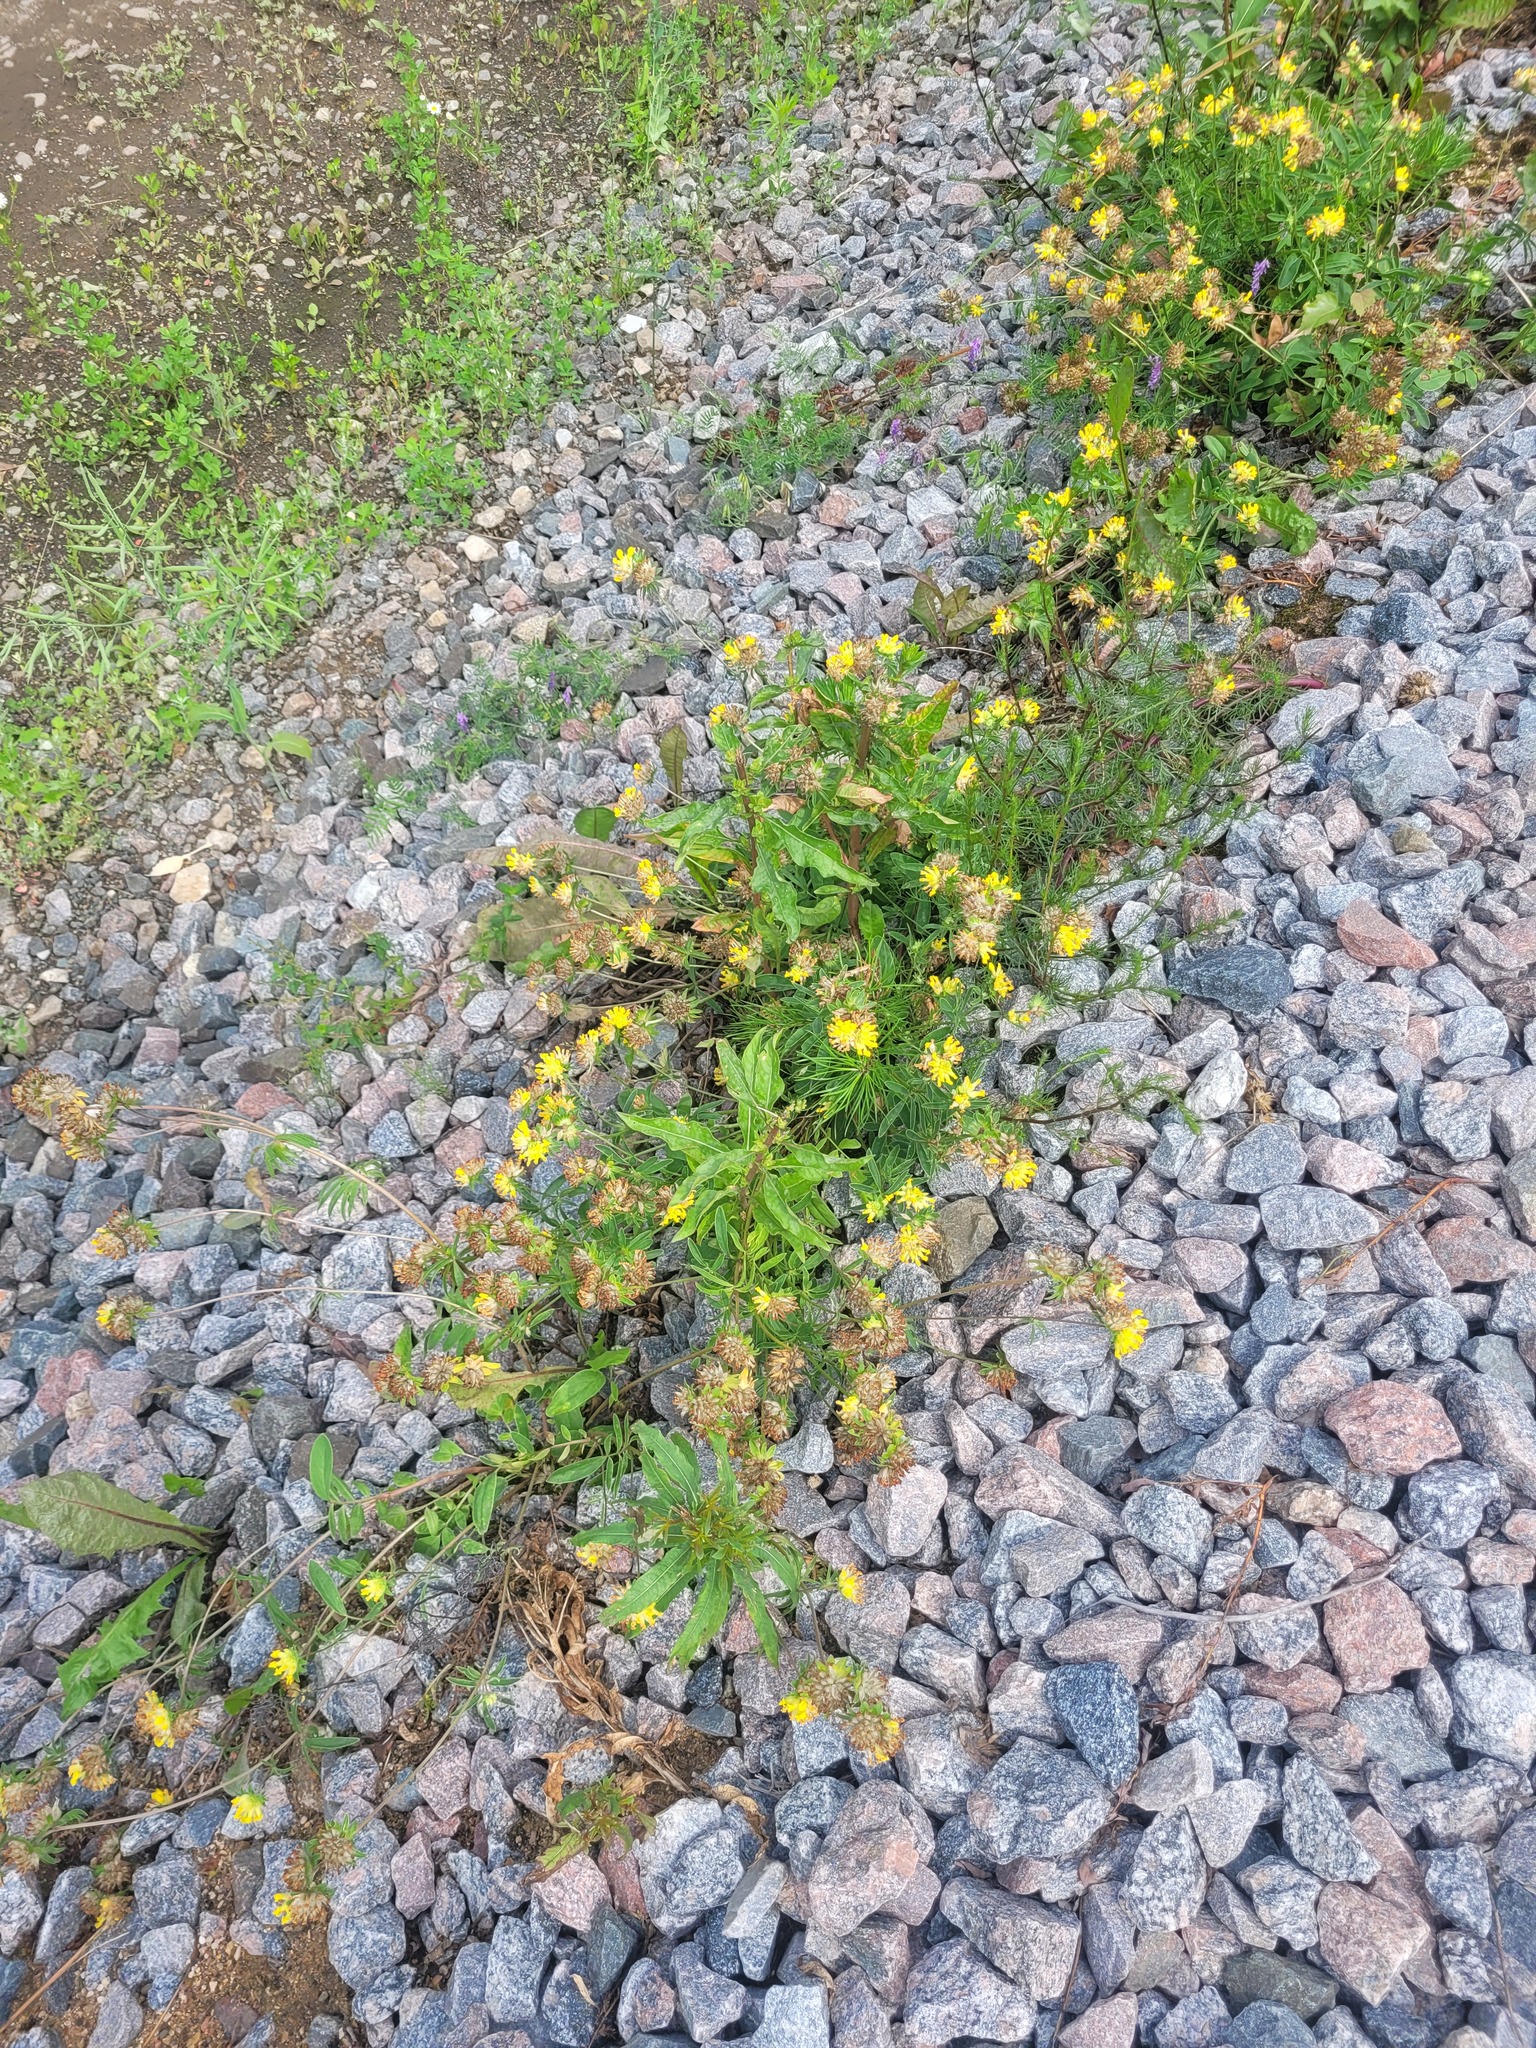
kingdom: Plantae
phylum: Tracheophyta
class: Magnoliopsida
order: Fabales
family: Fabaceae
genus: Anthyllis
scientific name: Anthyllis vulneraria
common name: Kidney vetch
